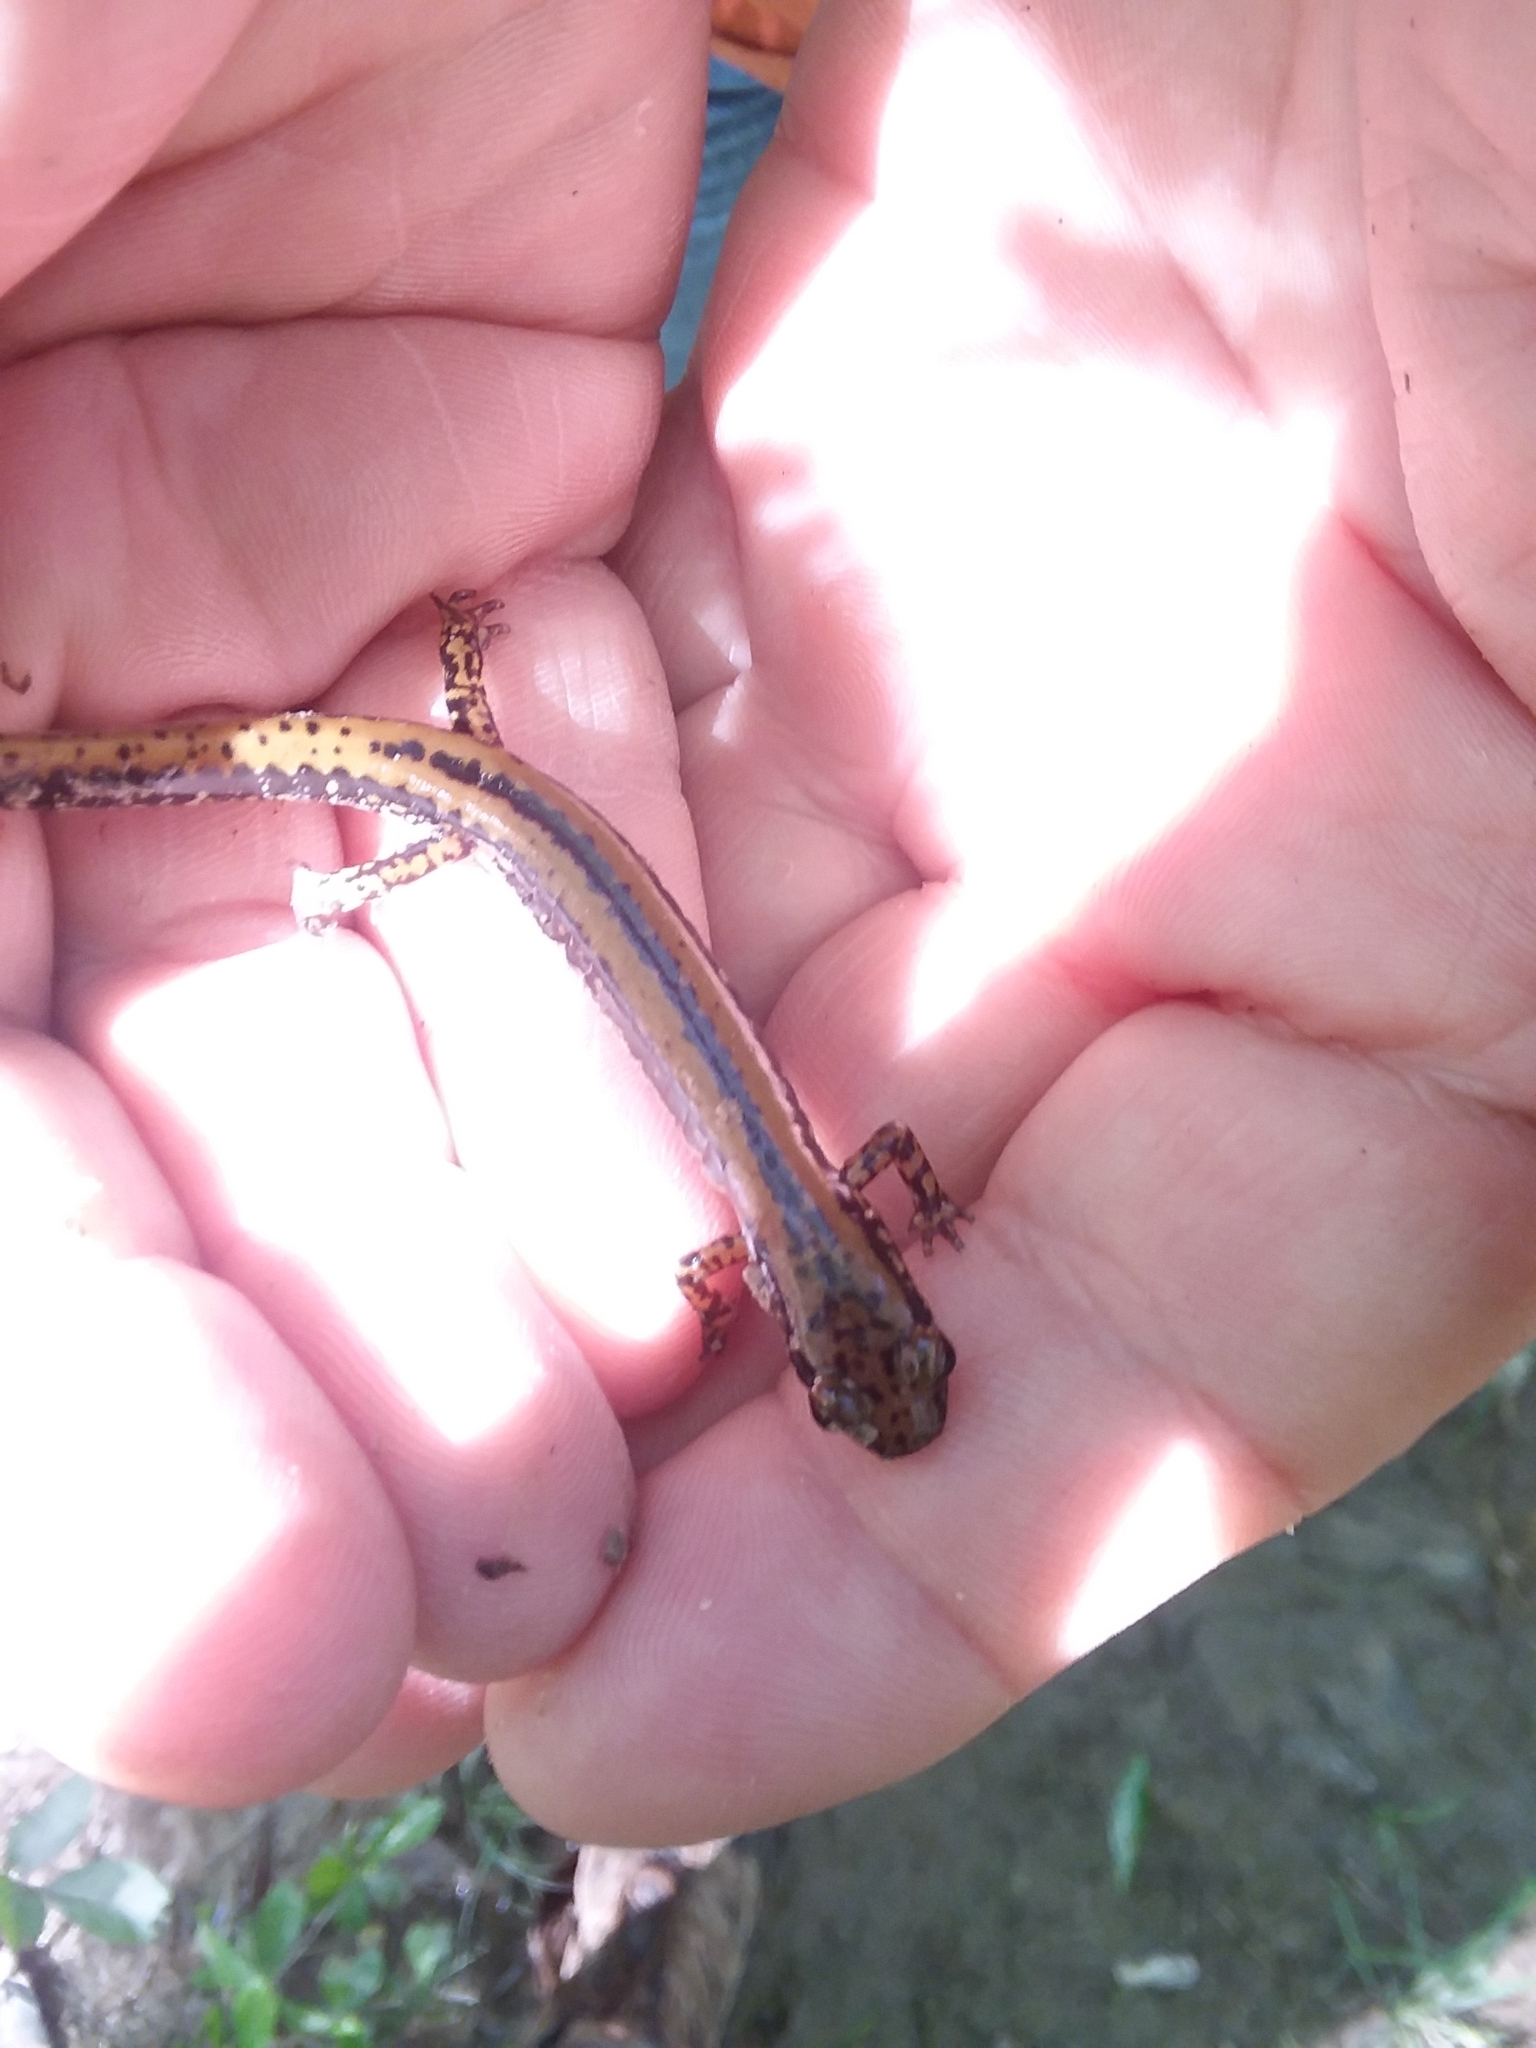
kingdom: Animalia
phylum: Chordata
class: Amphibia
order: Caudata
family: Plethodontidae
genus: Eurycea
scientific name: Eurycea guttolineata
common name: Three-lined salamander
